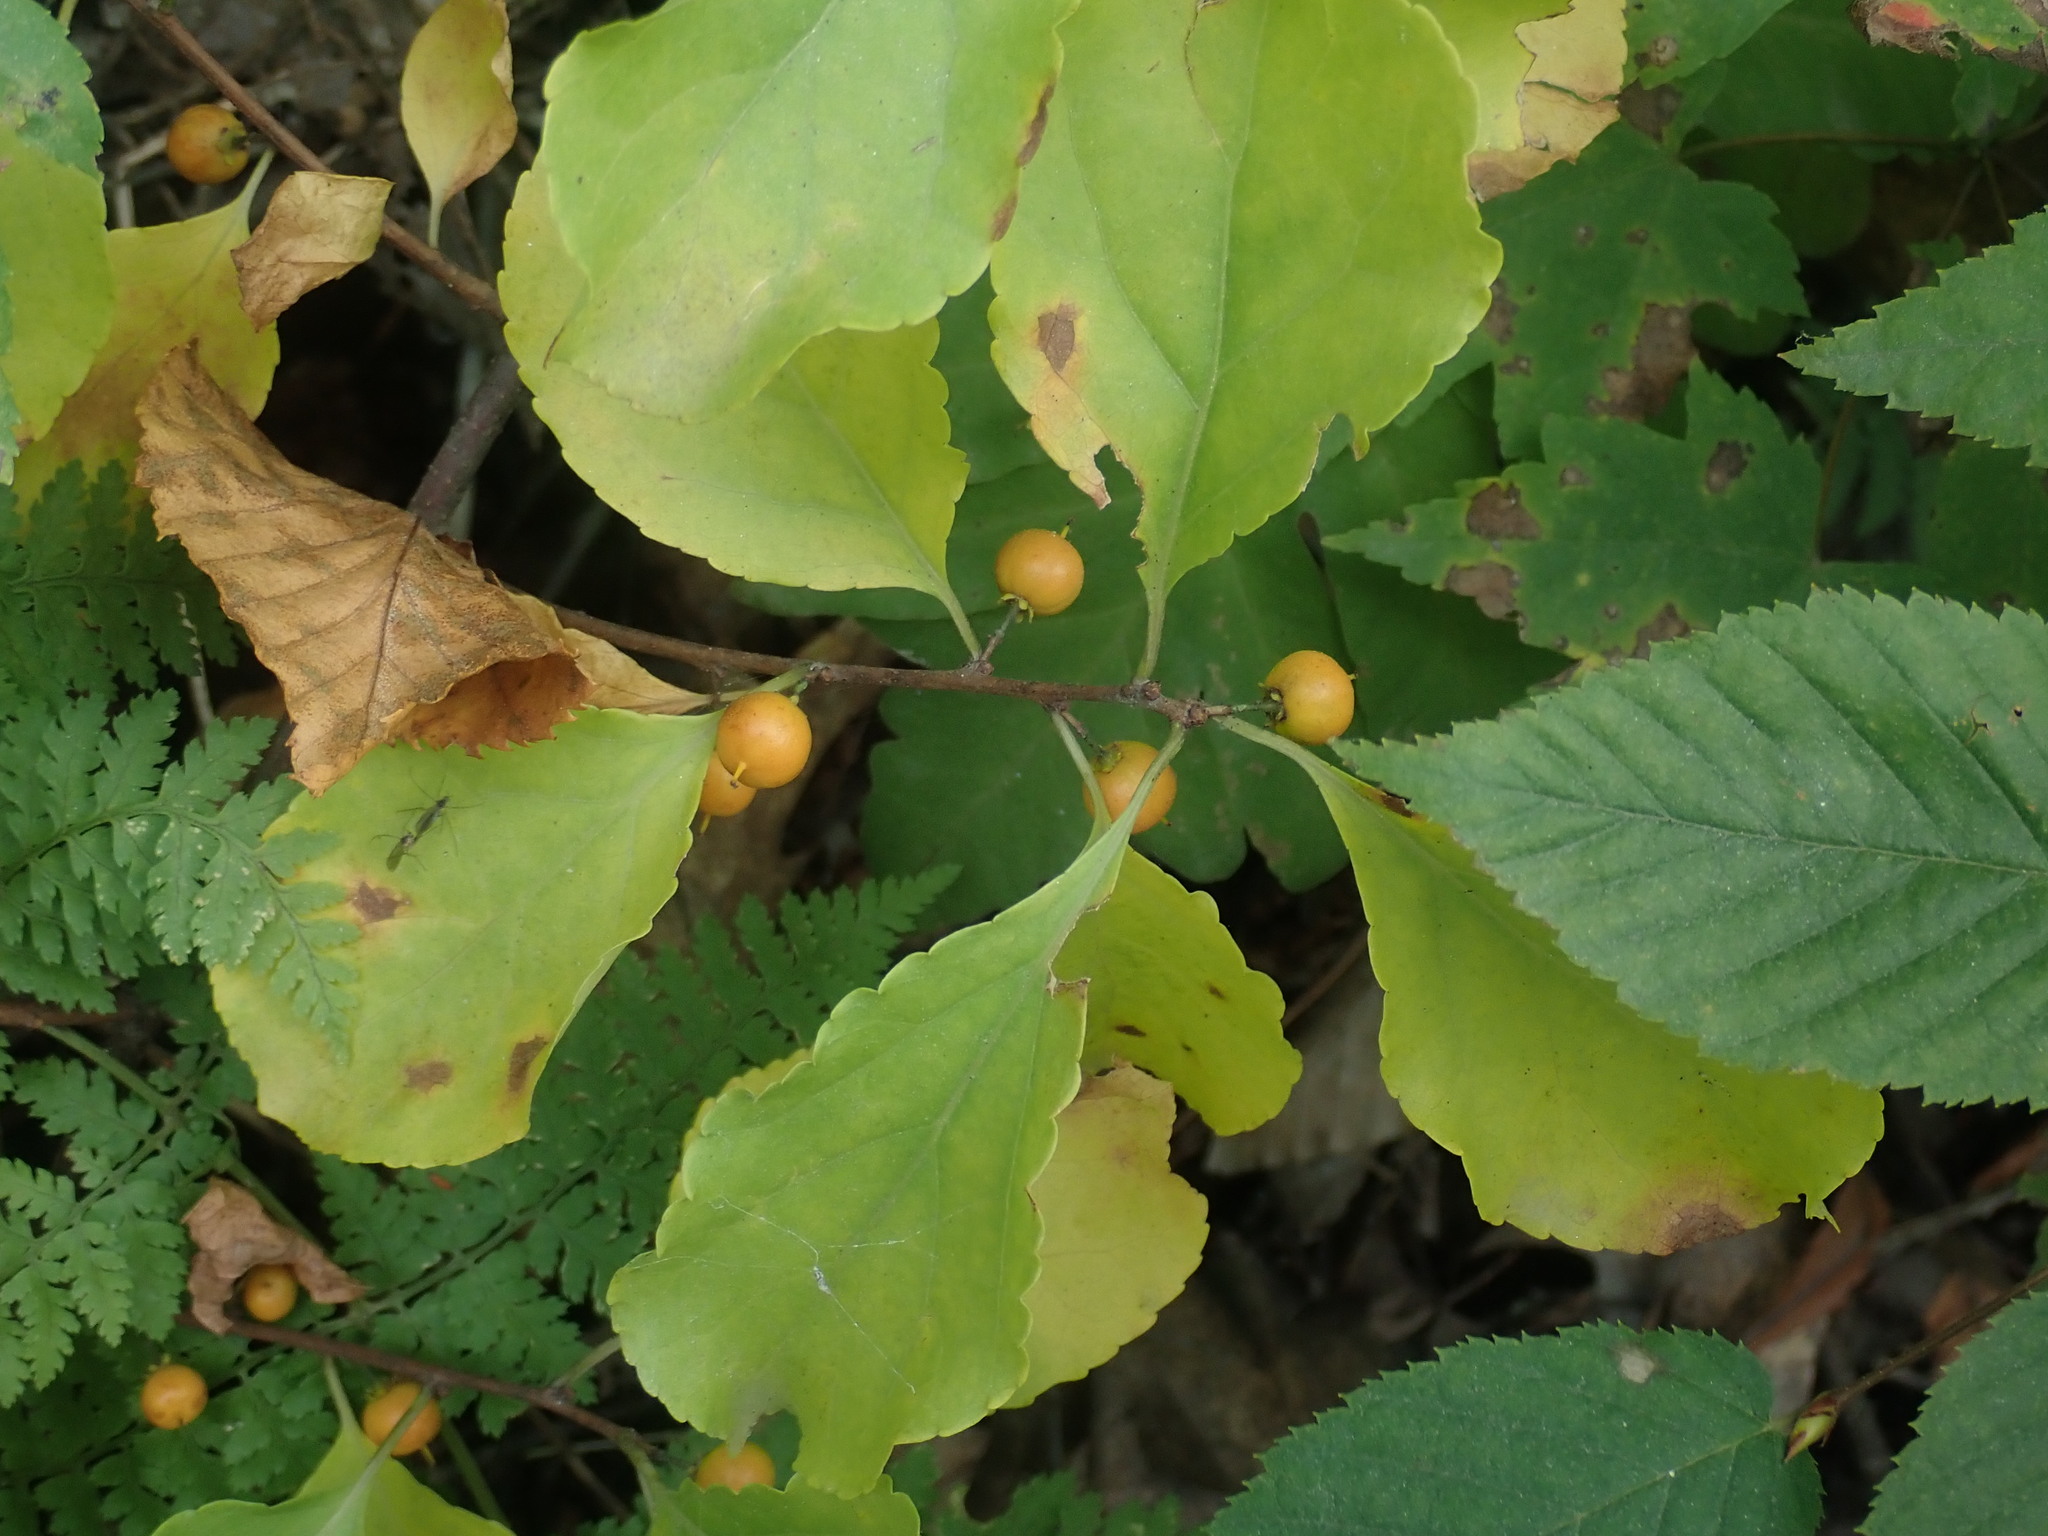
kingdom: Plantae
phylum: Tracheophyta
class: Magnoliopsida
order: Celastrales
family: Celastraceae
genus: Celastrus
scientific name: Celastrus orbiculatus
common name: Oriental bittersweet
